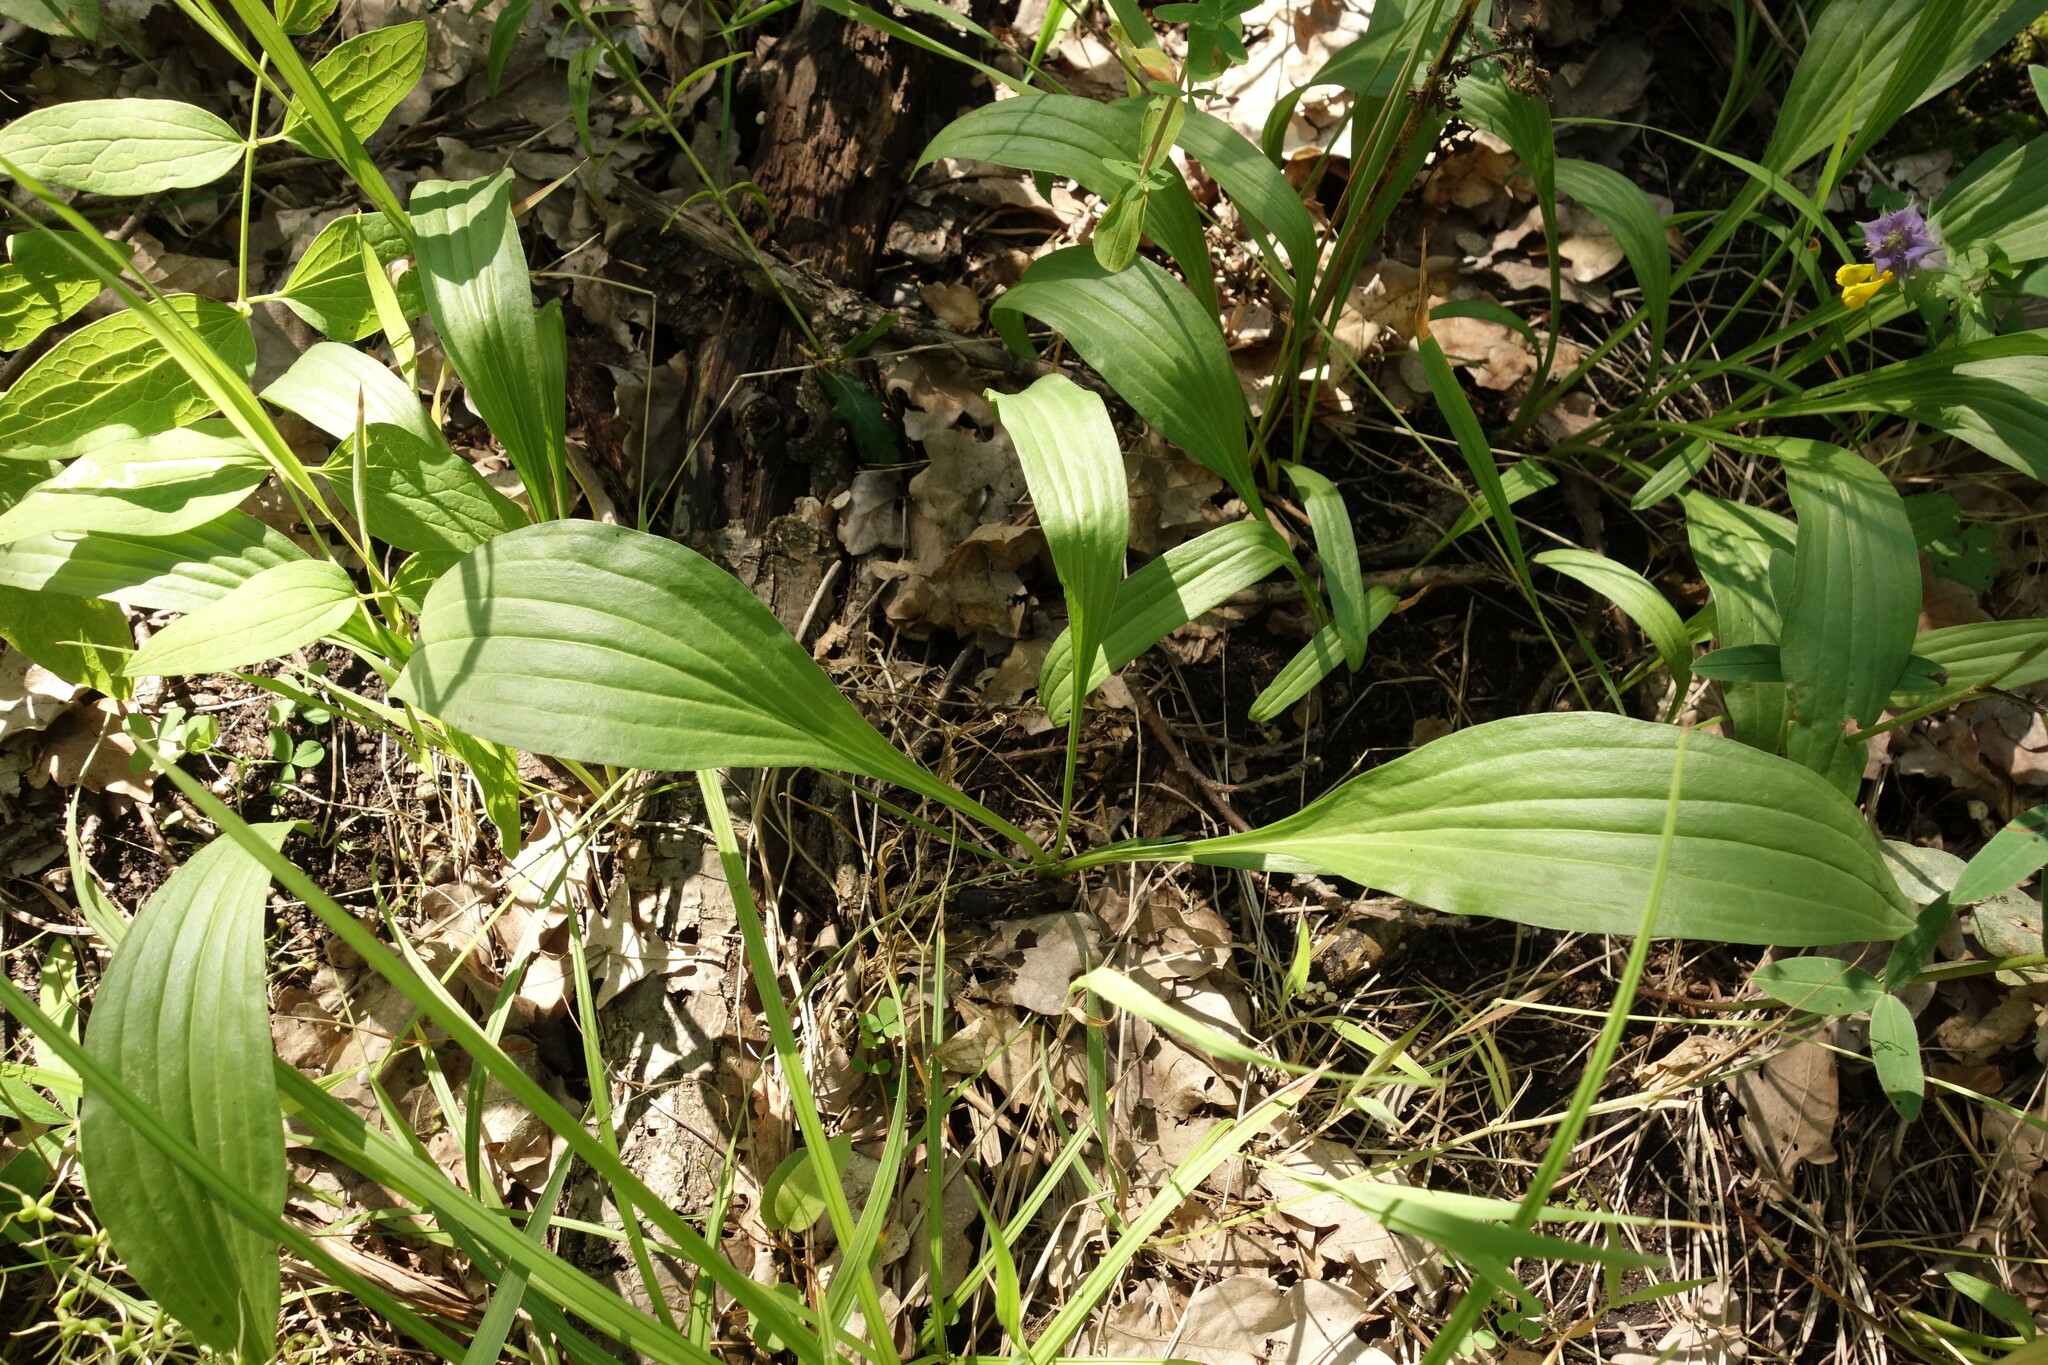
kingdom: Plantae
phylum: Tracheophyta
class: Magnoliopsida
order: Asterales
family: Asteraceae
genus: Scorzonera
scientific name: Scorzonera humilis
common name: Viper's-grass
